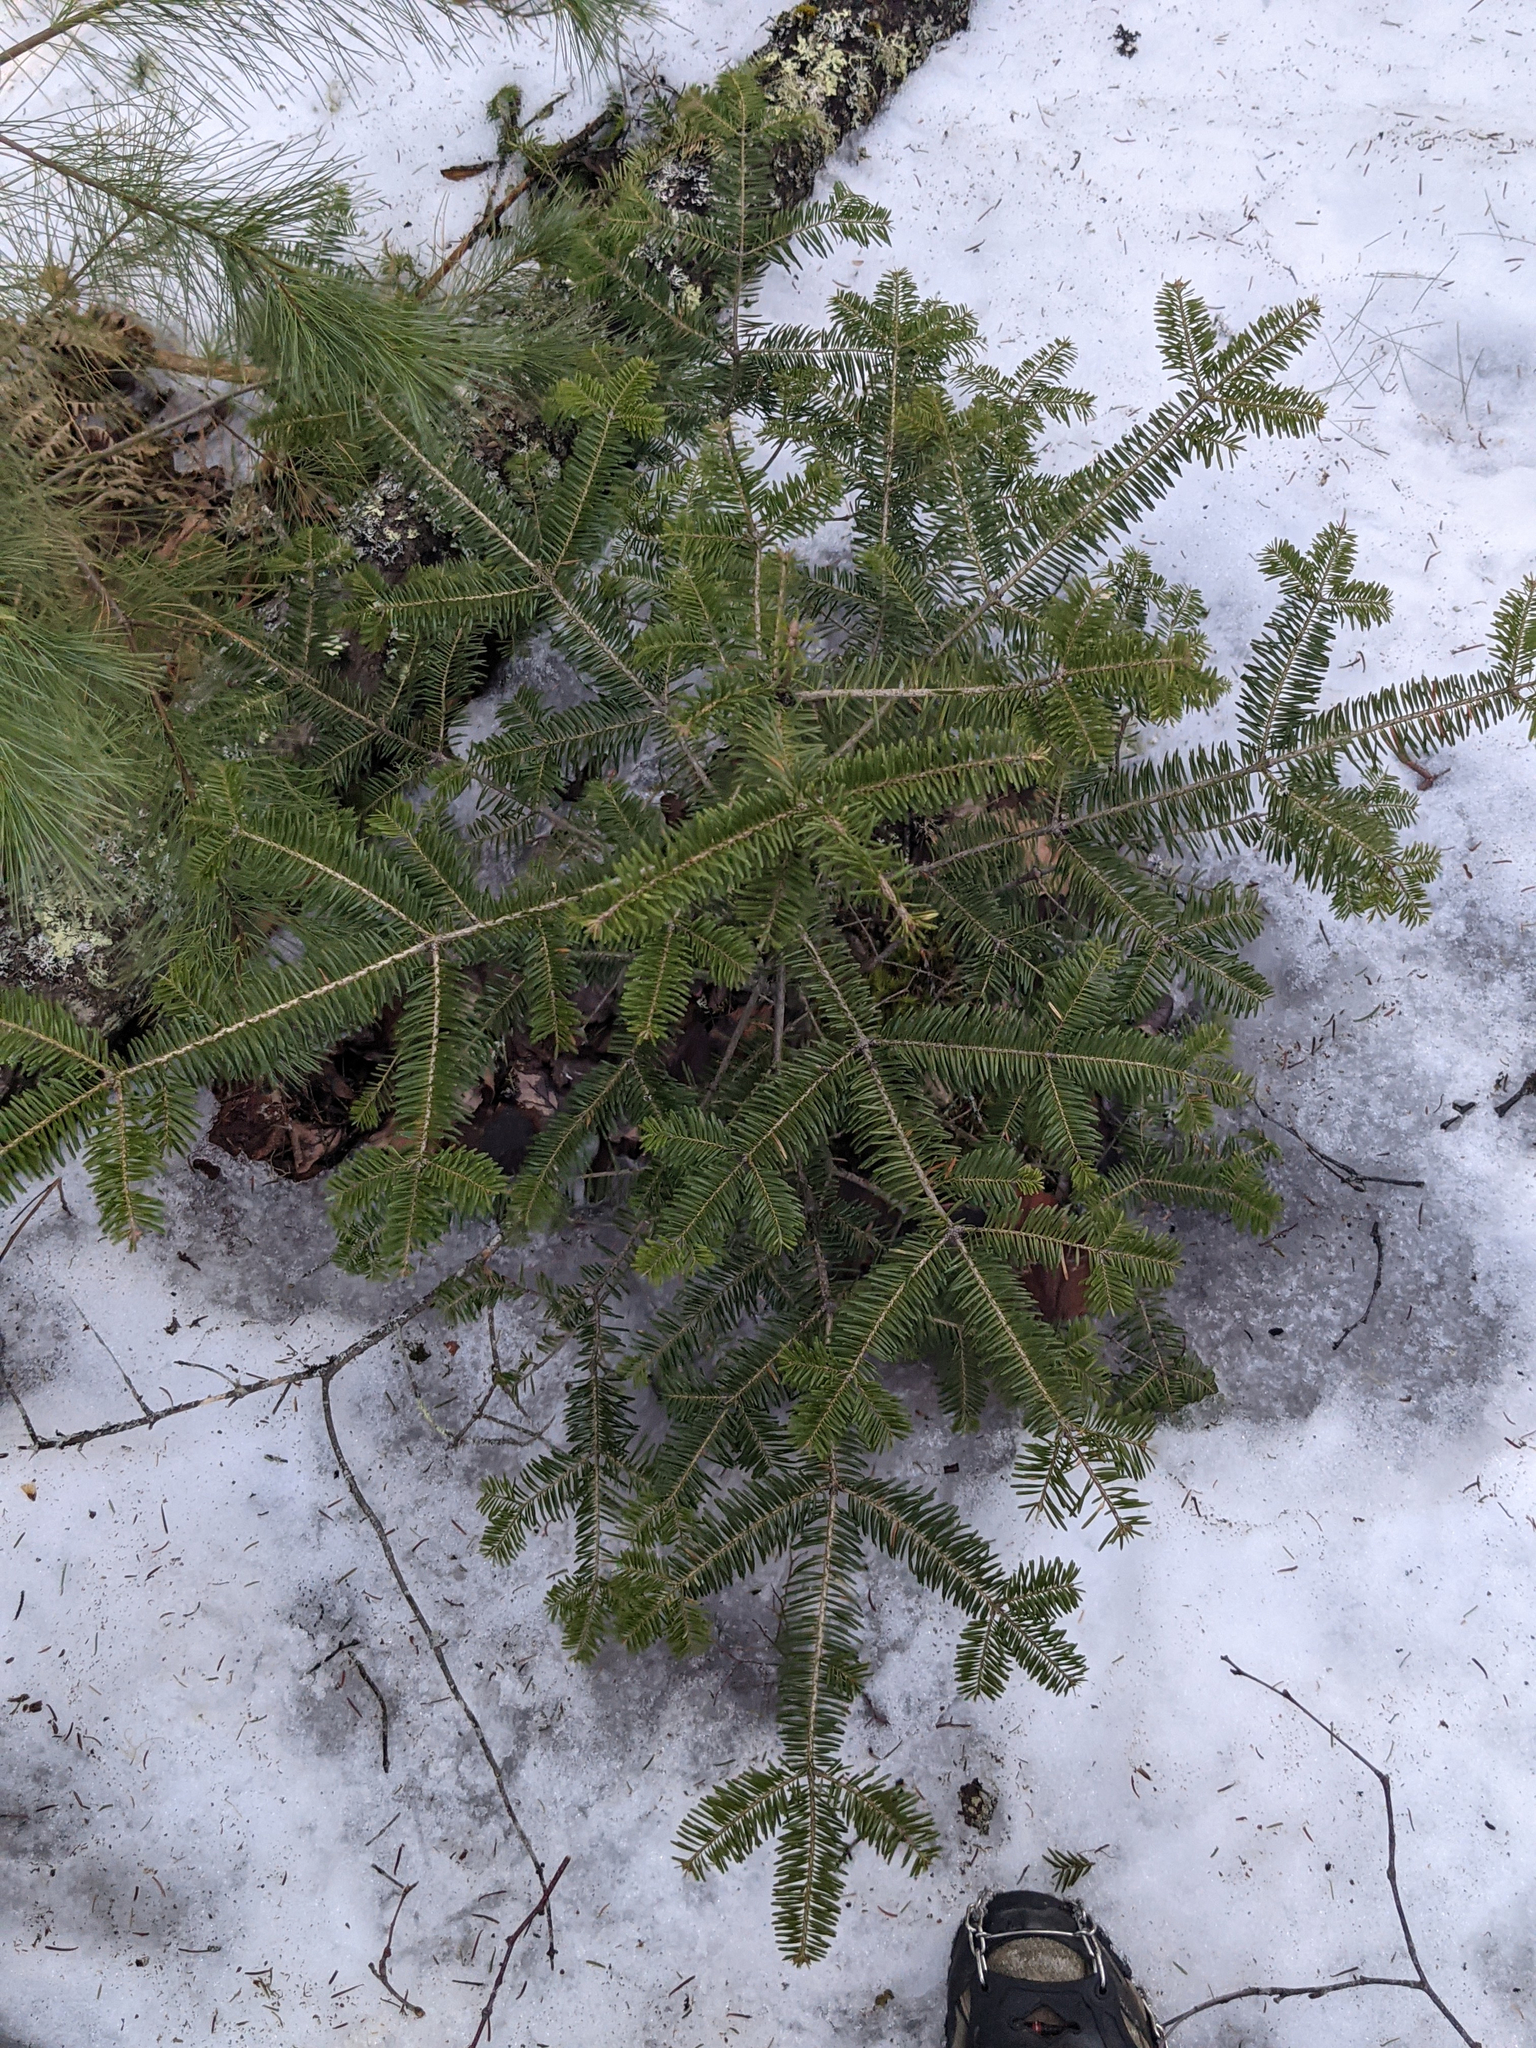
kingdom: Plantae
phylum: Tracheophyta
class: Pinopsida
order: Pinales
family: Pinaceae
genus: Abies
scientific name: Abies balsamea
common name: Balsam fir
